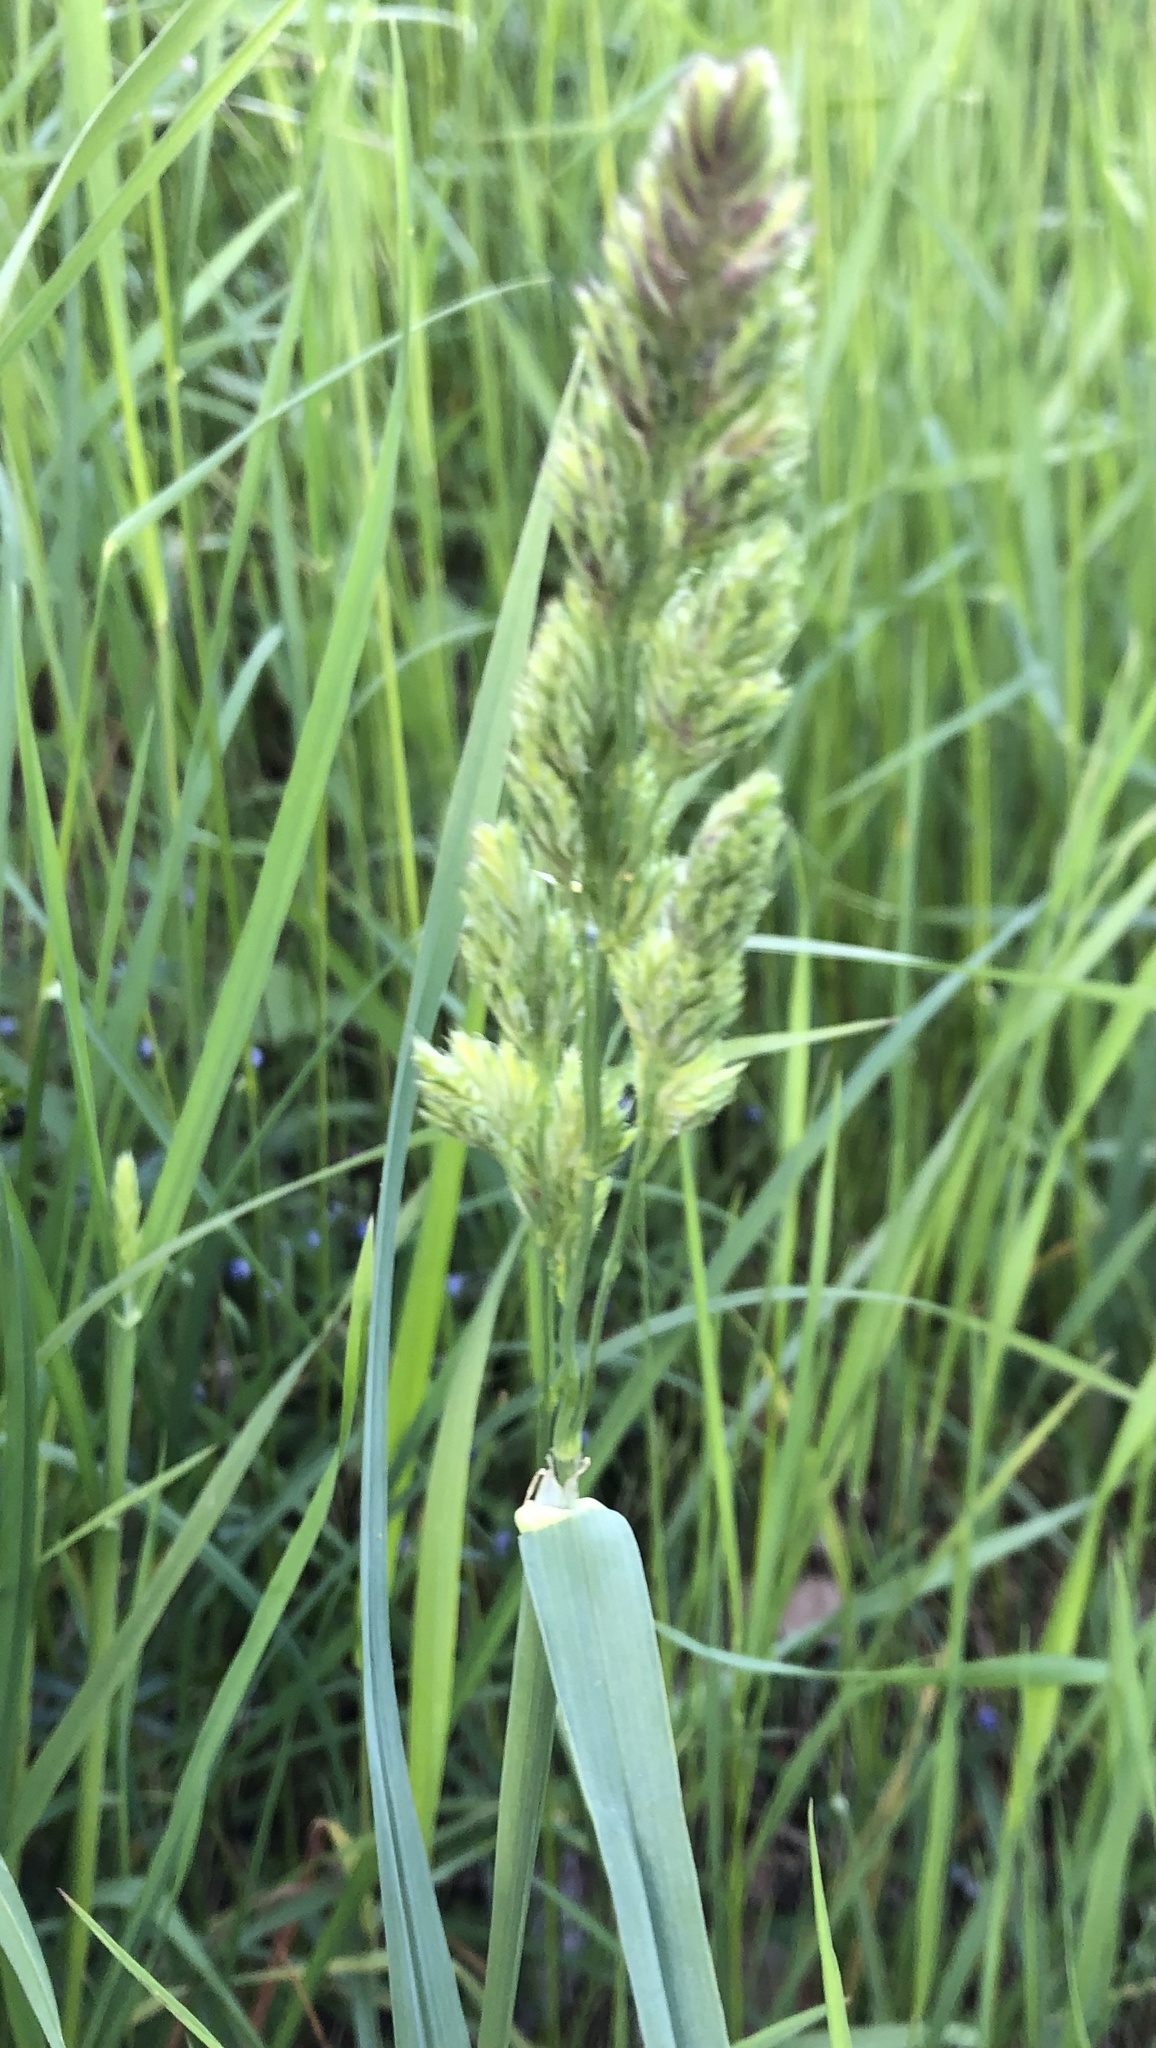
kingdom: Plantae
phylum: Tracheophyta
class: Liliopsida
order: Poales
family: Poaceae
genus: Dactylis
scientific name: Dactylis glomerata
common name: Orchardgrass
